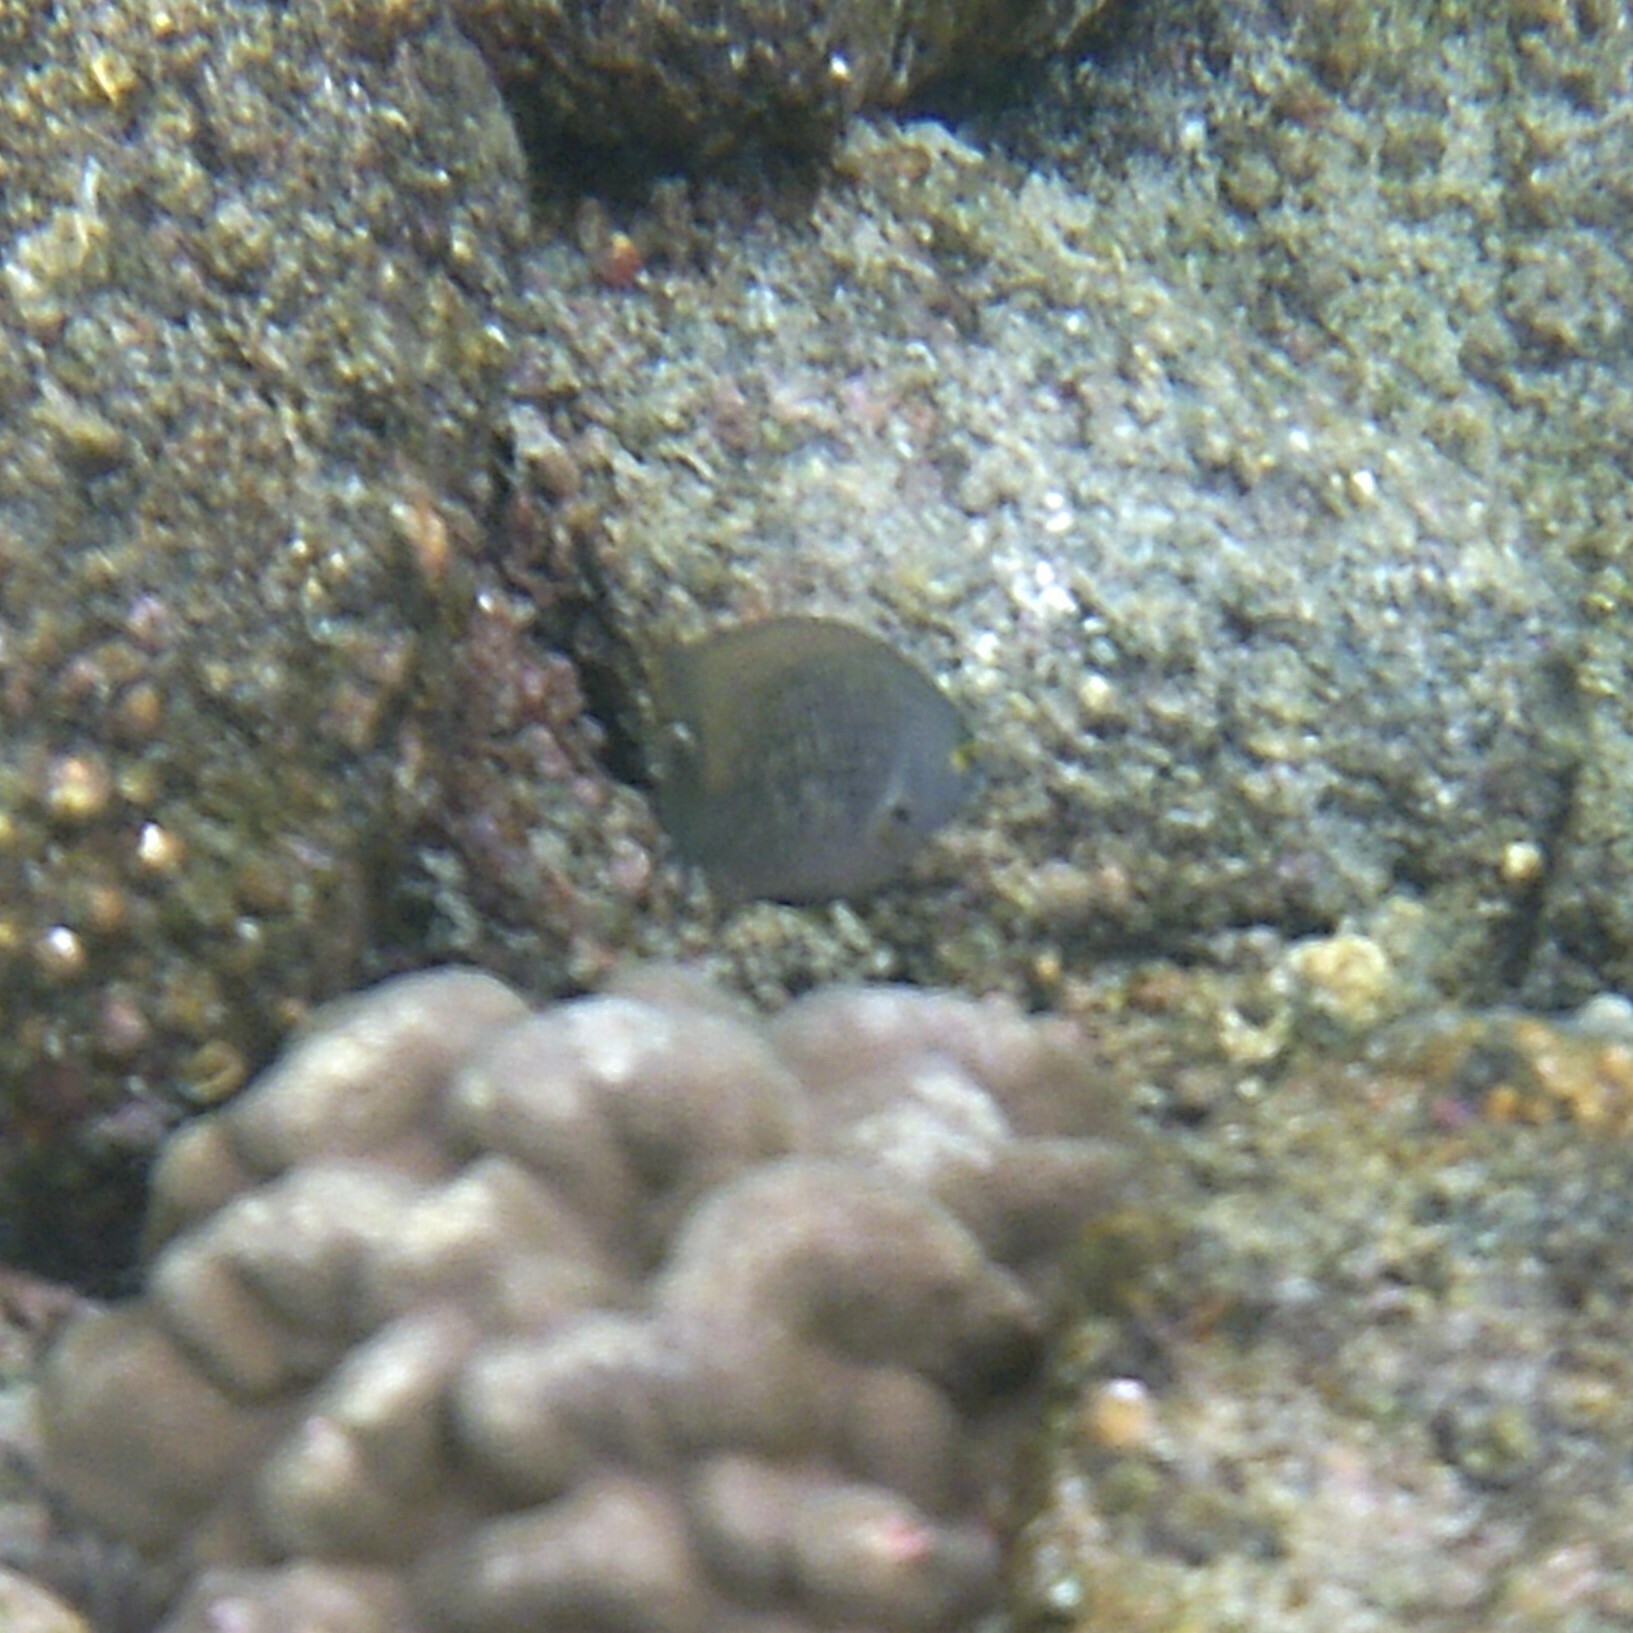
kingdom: Animalia
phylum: Chordata
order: Perciformes
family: Pomacentridae
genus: Stegastes
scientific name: Stegastes fasciolatus
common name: Pacific gregory
